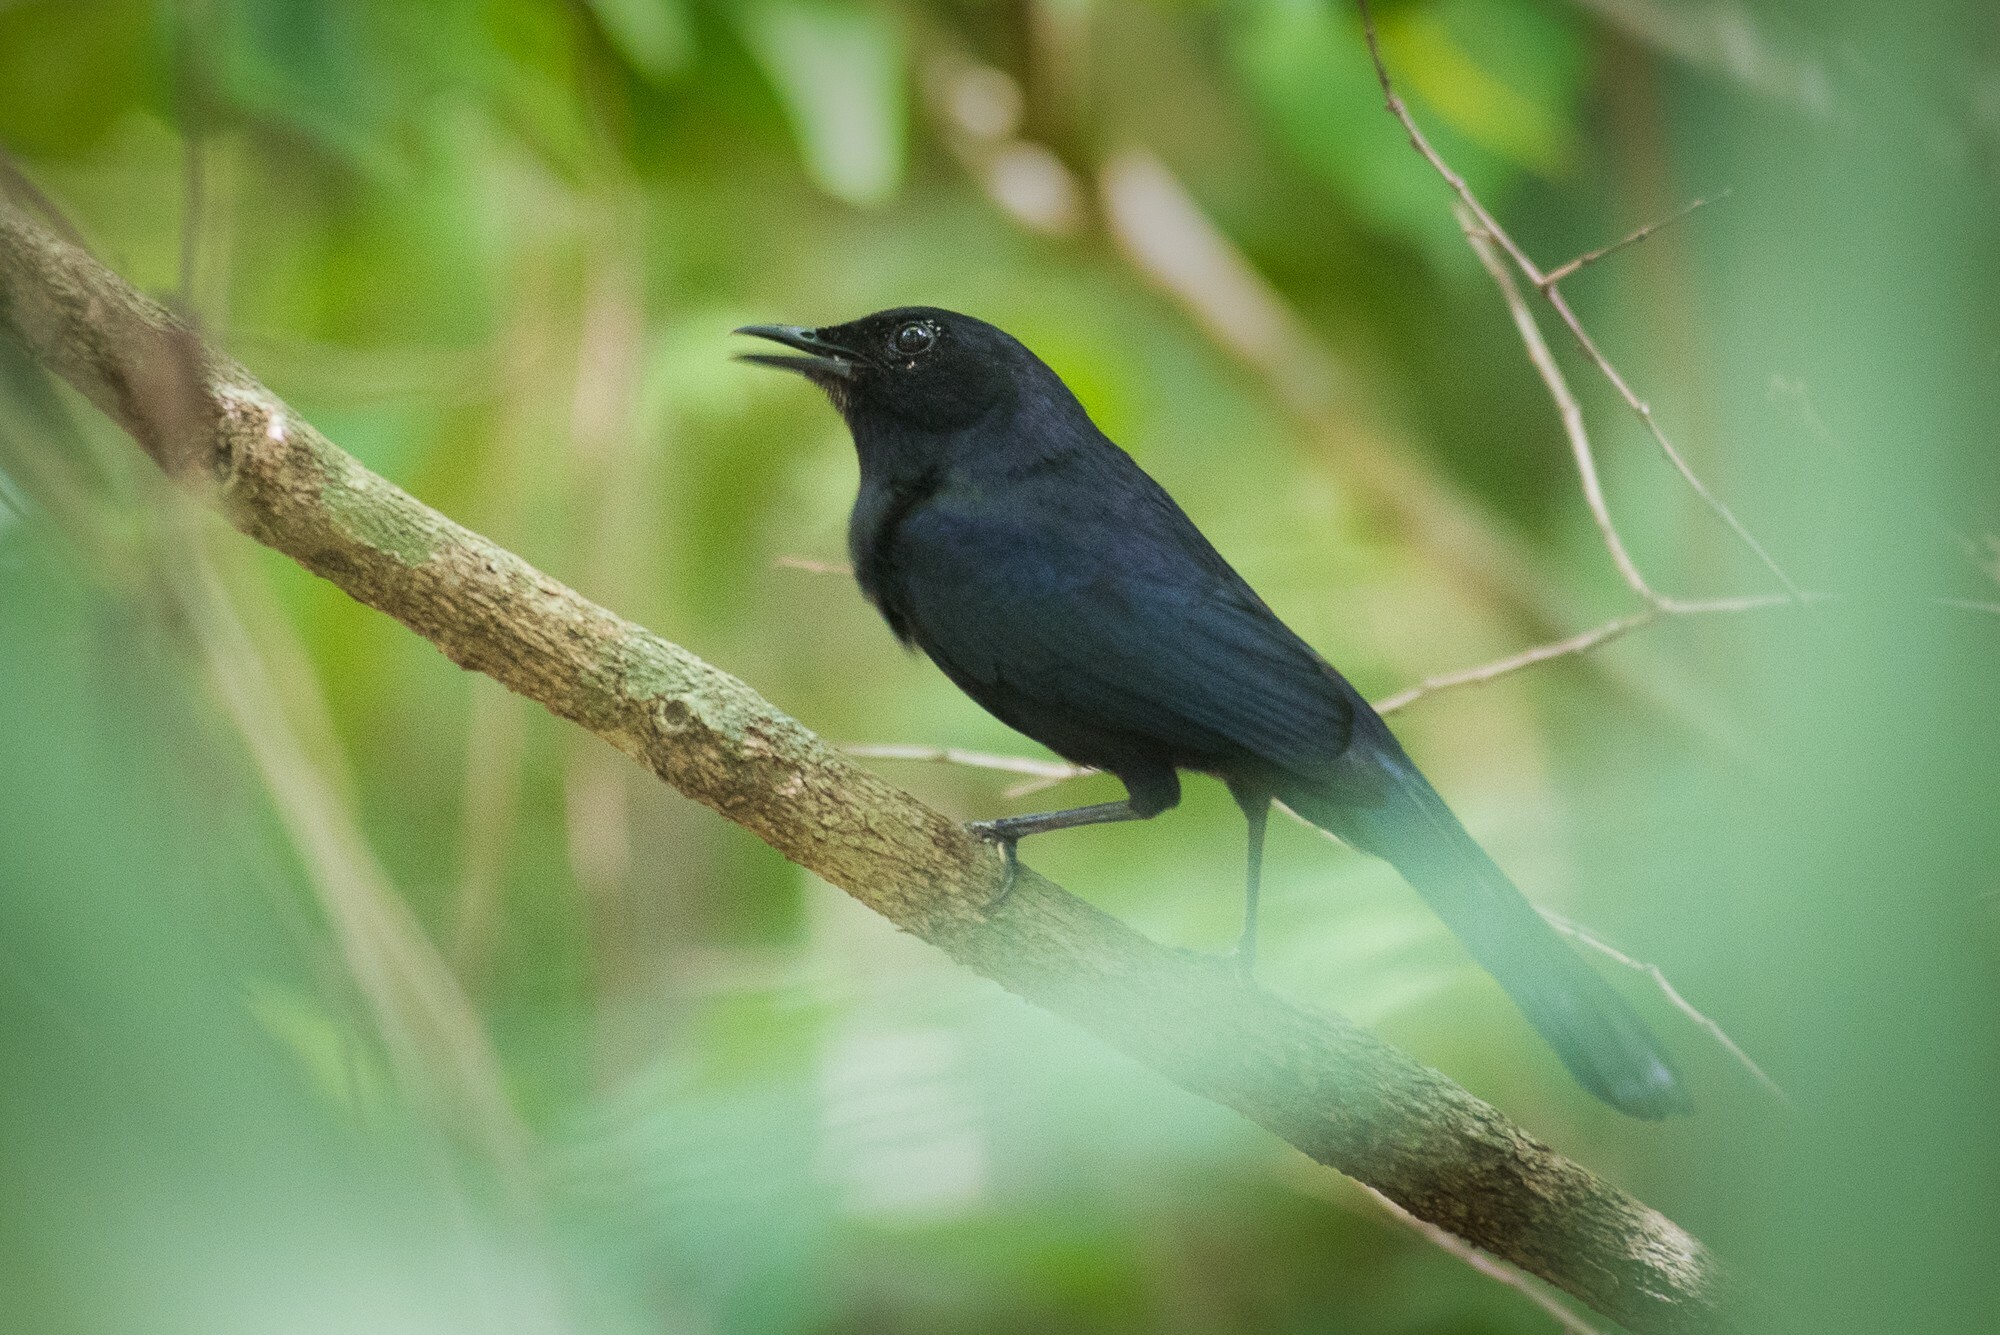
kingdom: Animalia
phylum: Chordata
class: Aves
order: Passeriformes
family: Mimidae
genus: Melanoptila
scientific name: Melanoptila glabrirostris
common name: Black catbird
